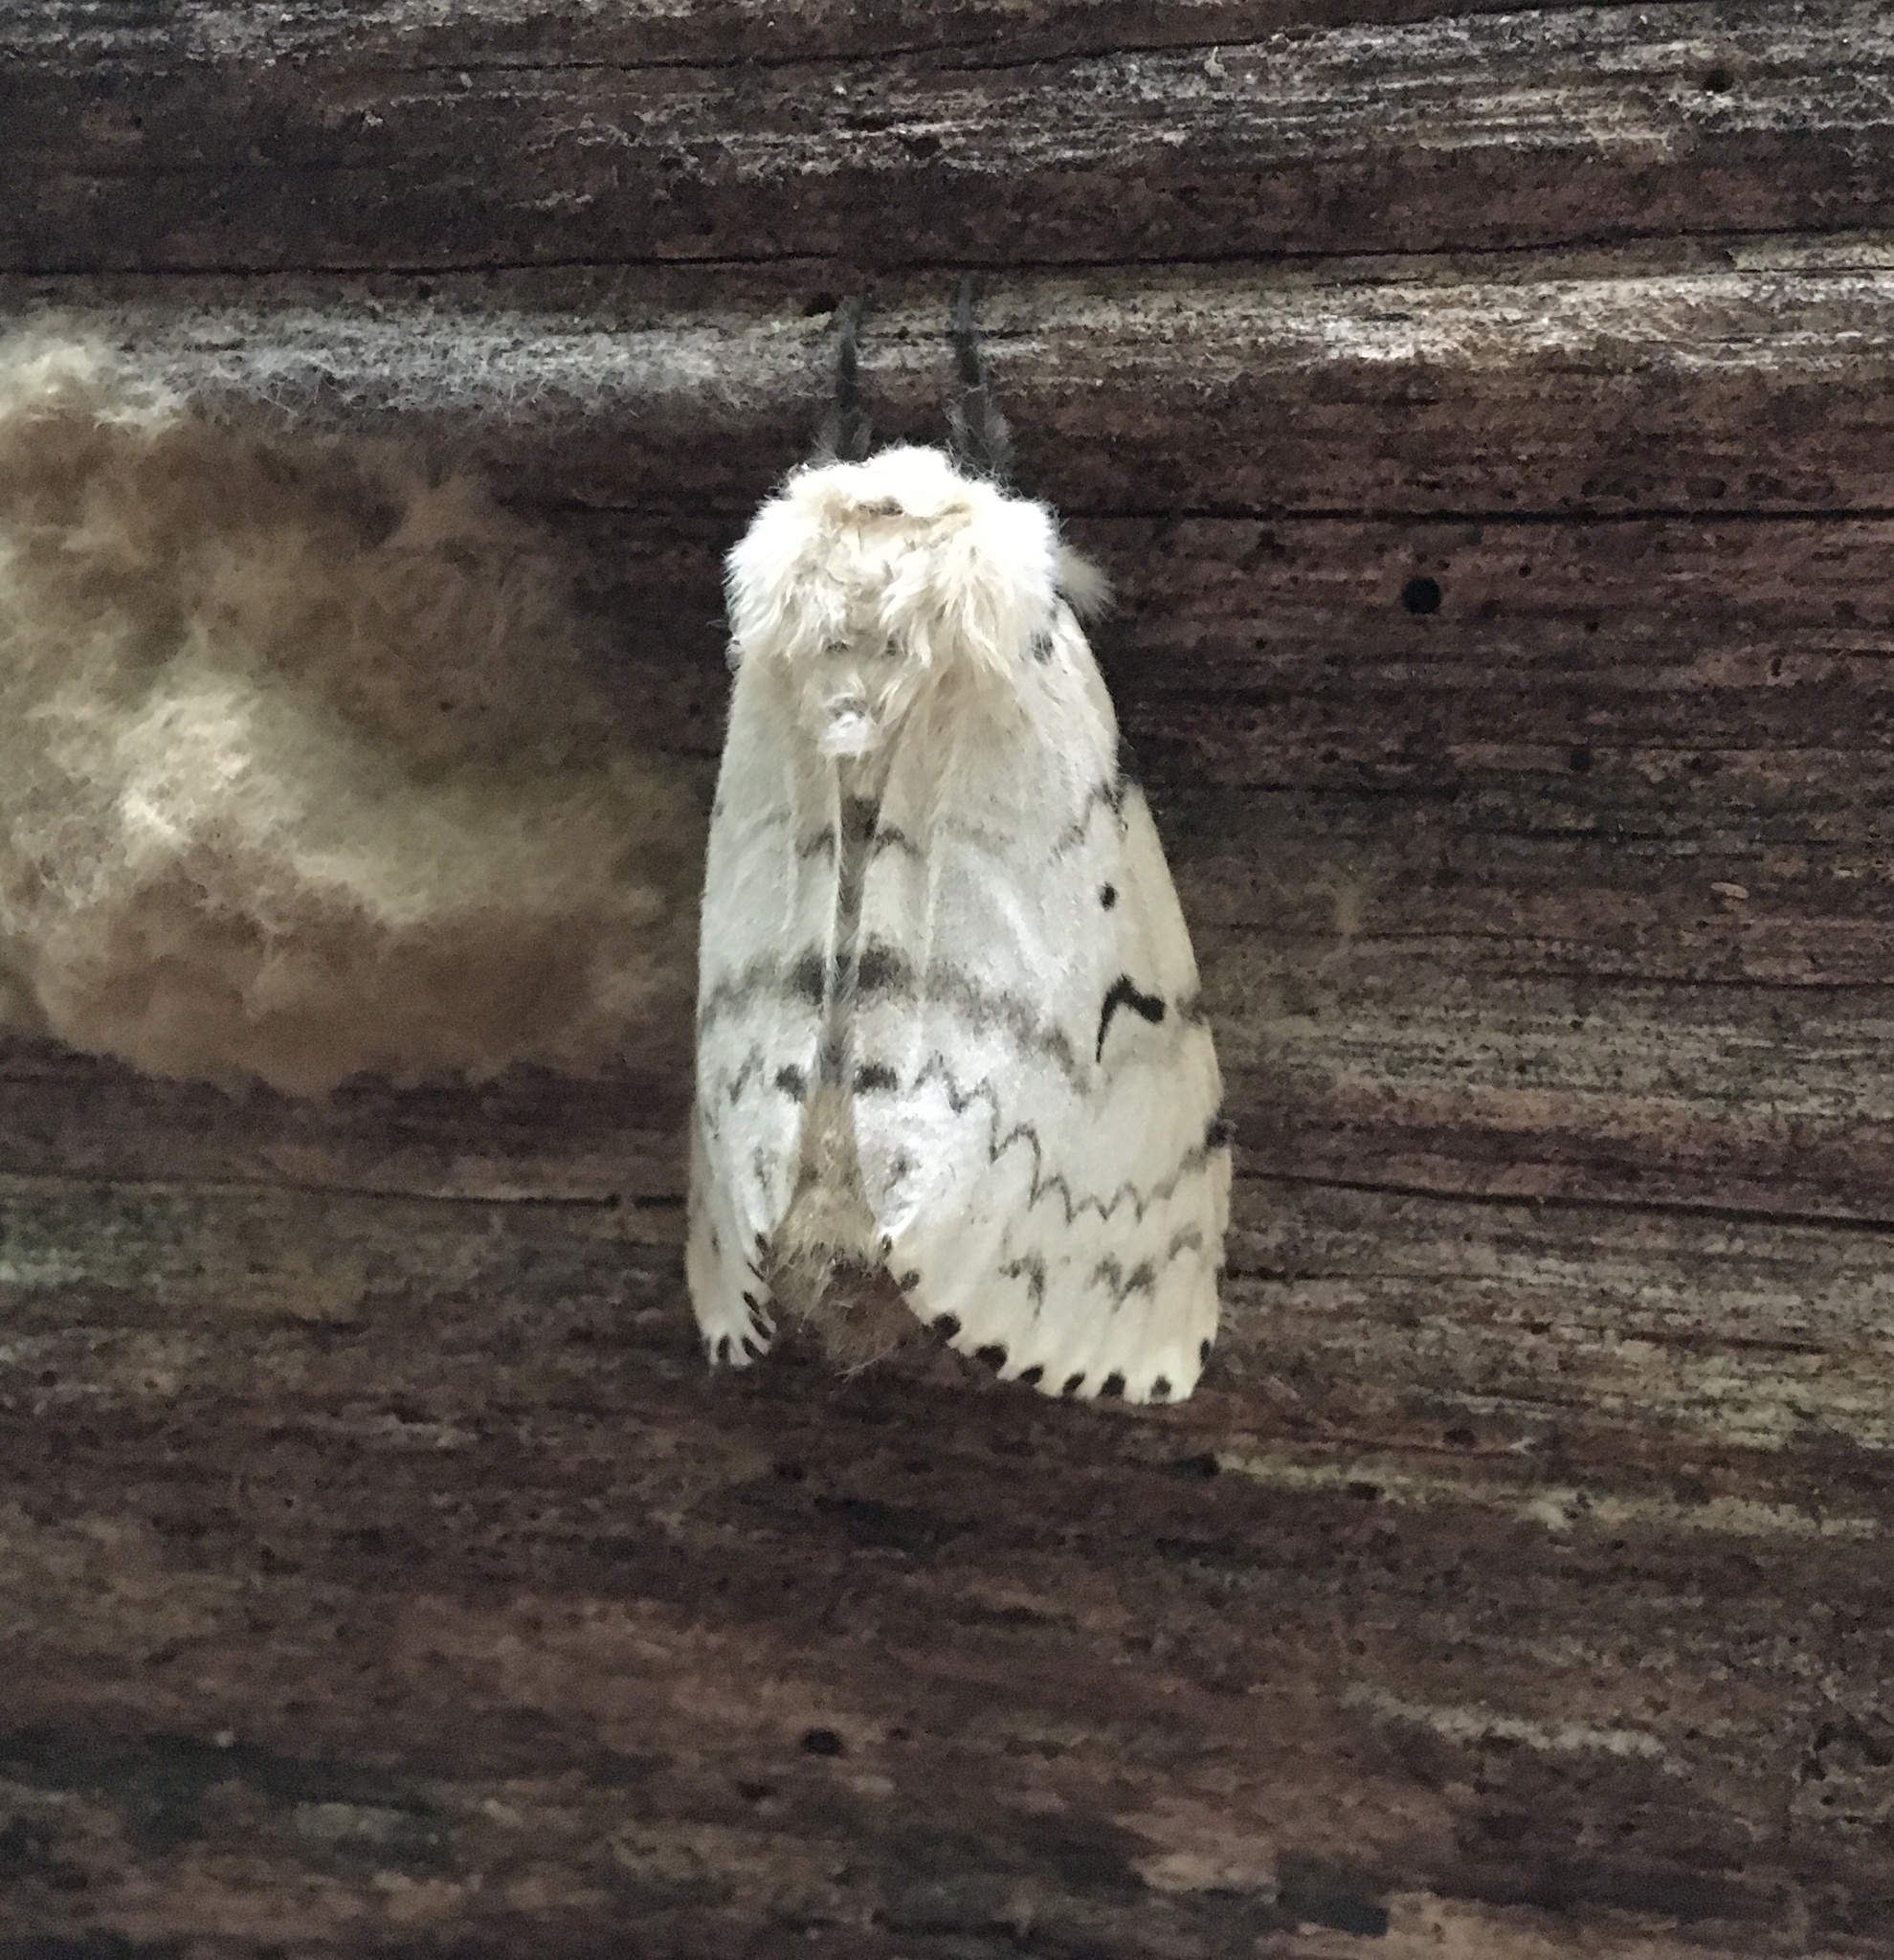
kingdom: Animalia
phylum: Arthropoda
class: Insecta
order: Lepidoptera
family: Erebidae
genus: Lymantria
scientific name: Lymantria dispar
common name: Gypsy moth
